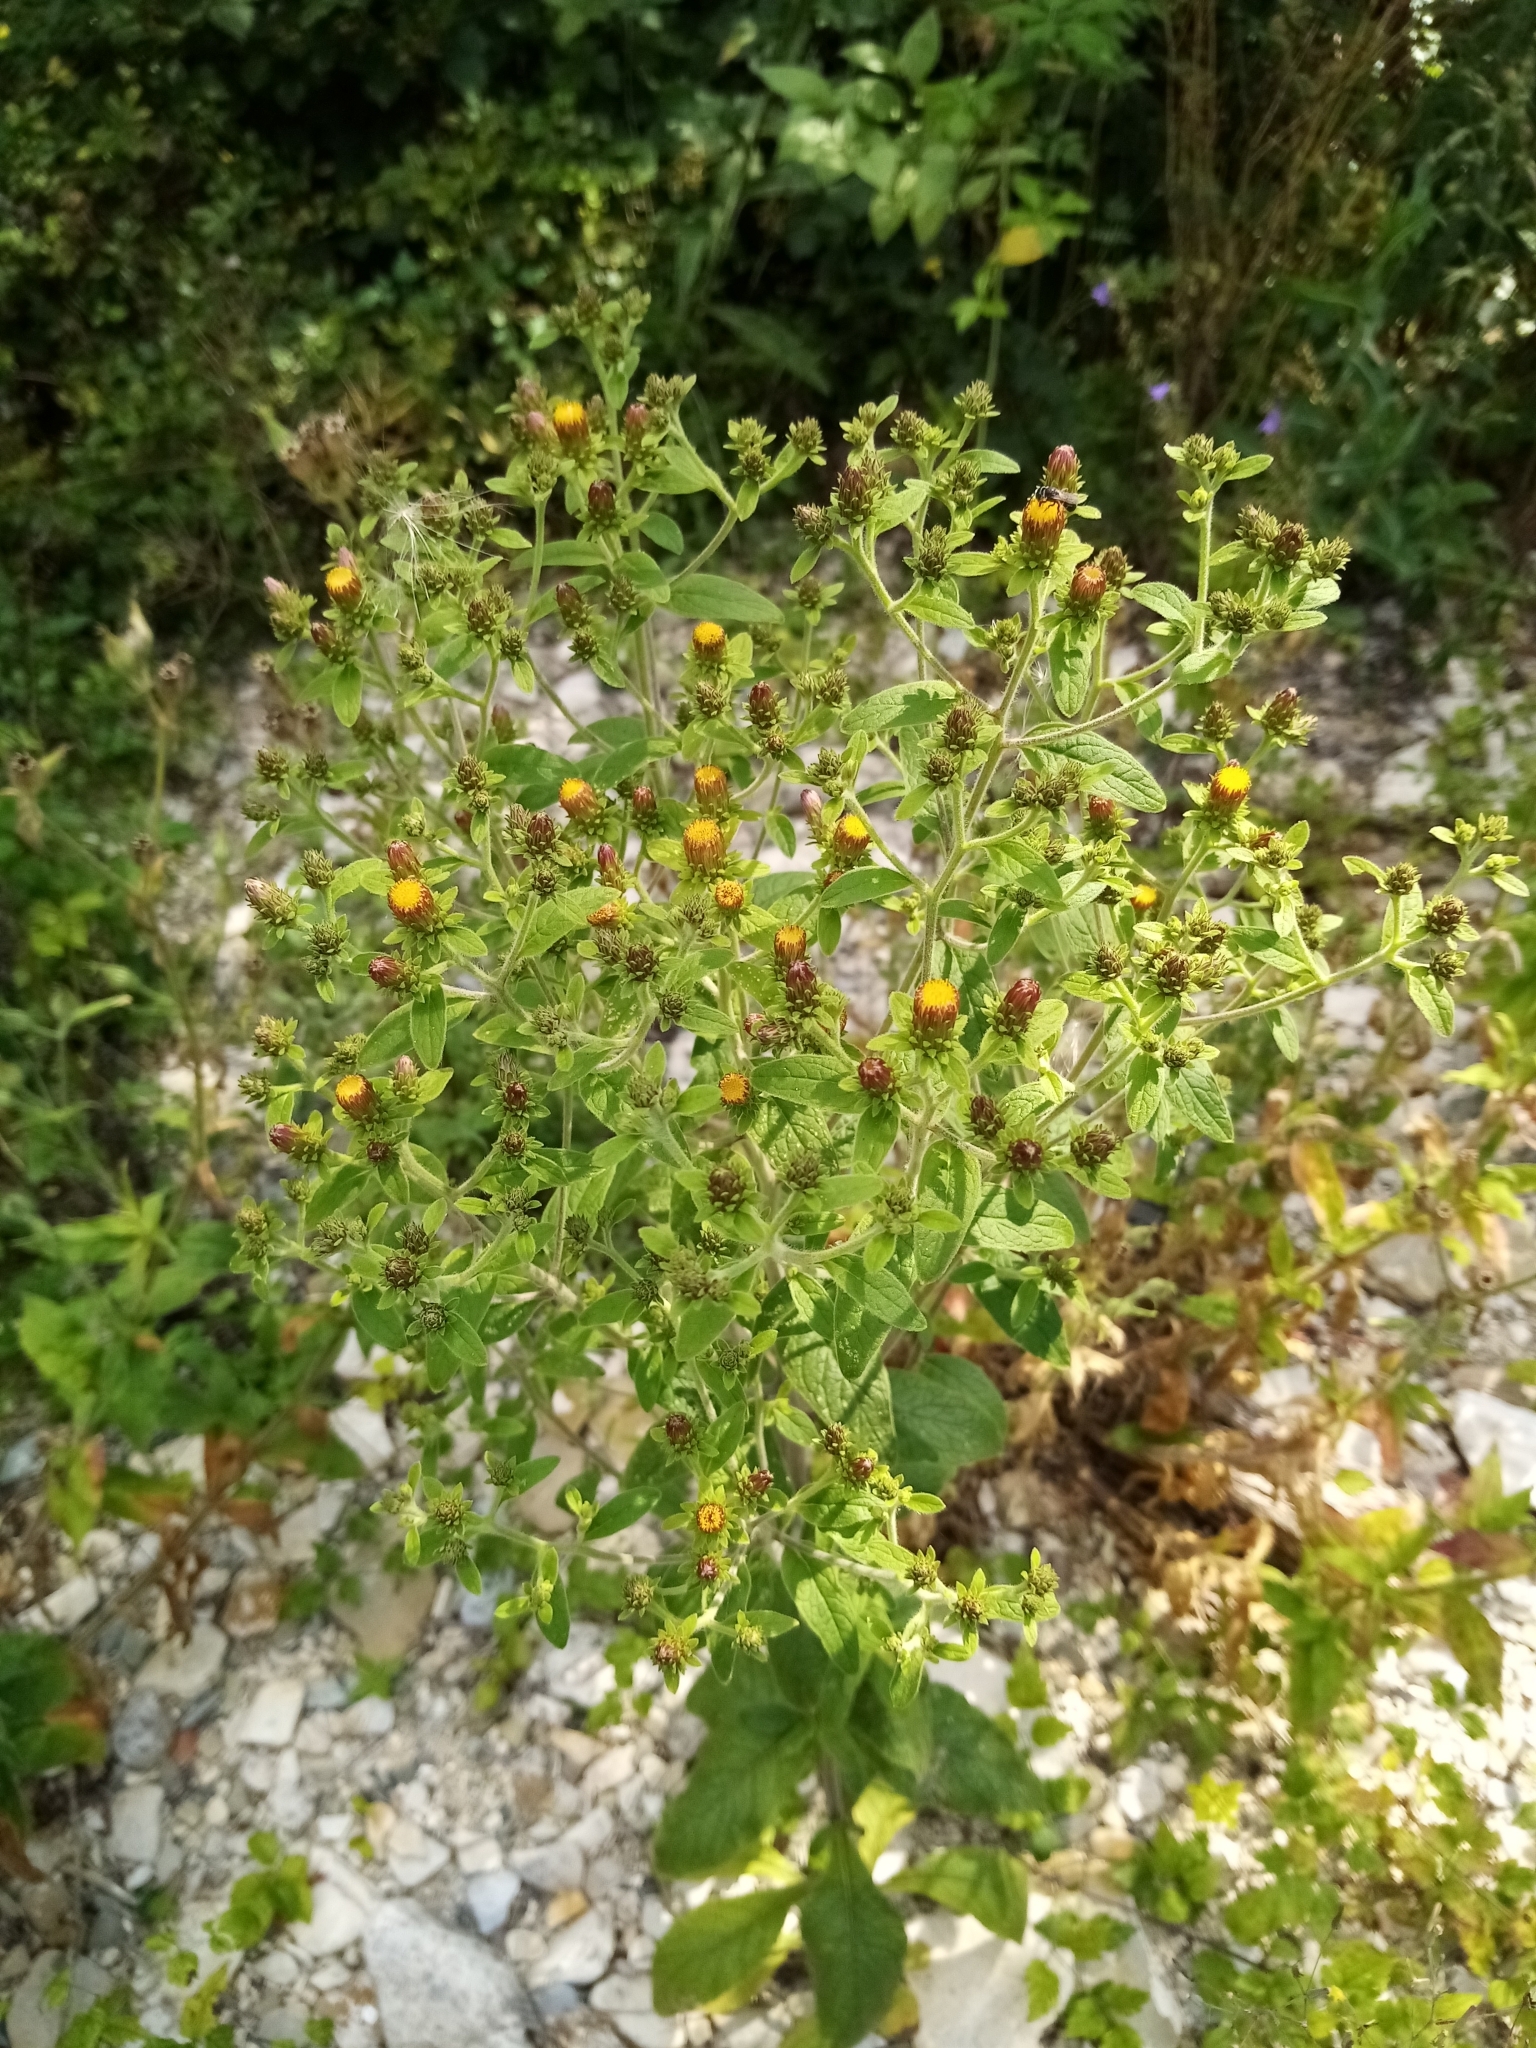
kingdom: Plantae
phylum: Tracheophyta
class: Magnoliopsida
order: Asterales
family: Asteraceae
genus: Pentanema
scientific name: Pentanema squarrosum
